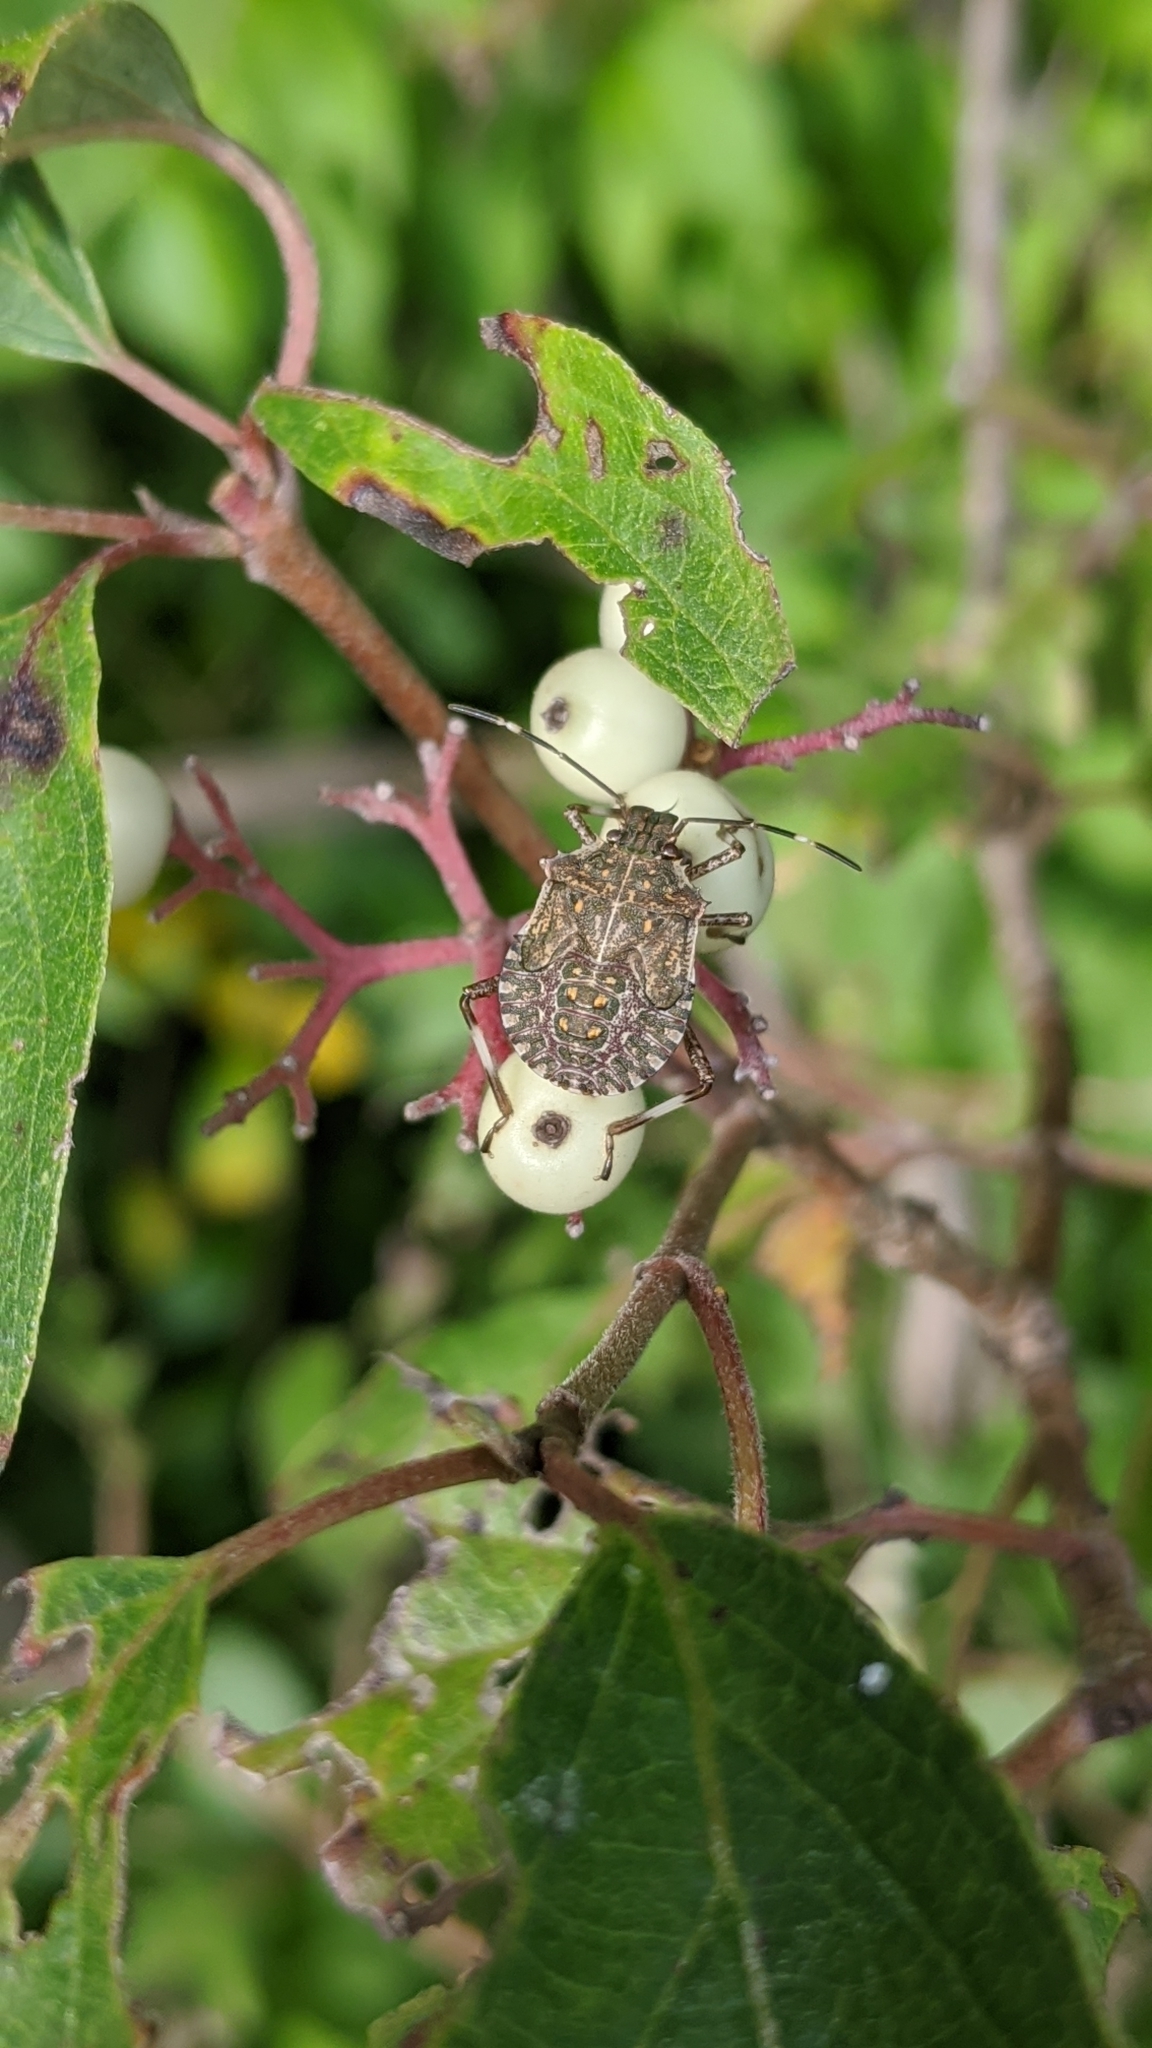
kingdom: Animalia
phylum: Arthropoda
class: Insecta
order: Hemiptera
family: Pentatomidae
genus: Halyomorpha
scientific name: Halyomorpha halys
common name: Brown marmorated stink bug
